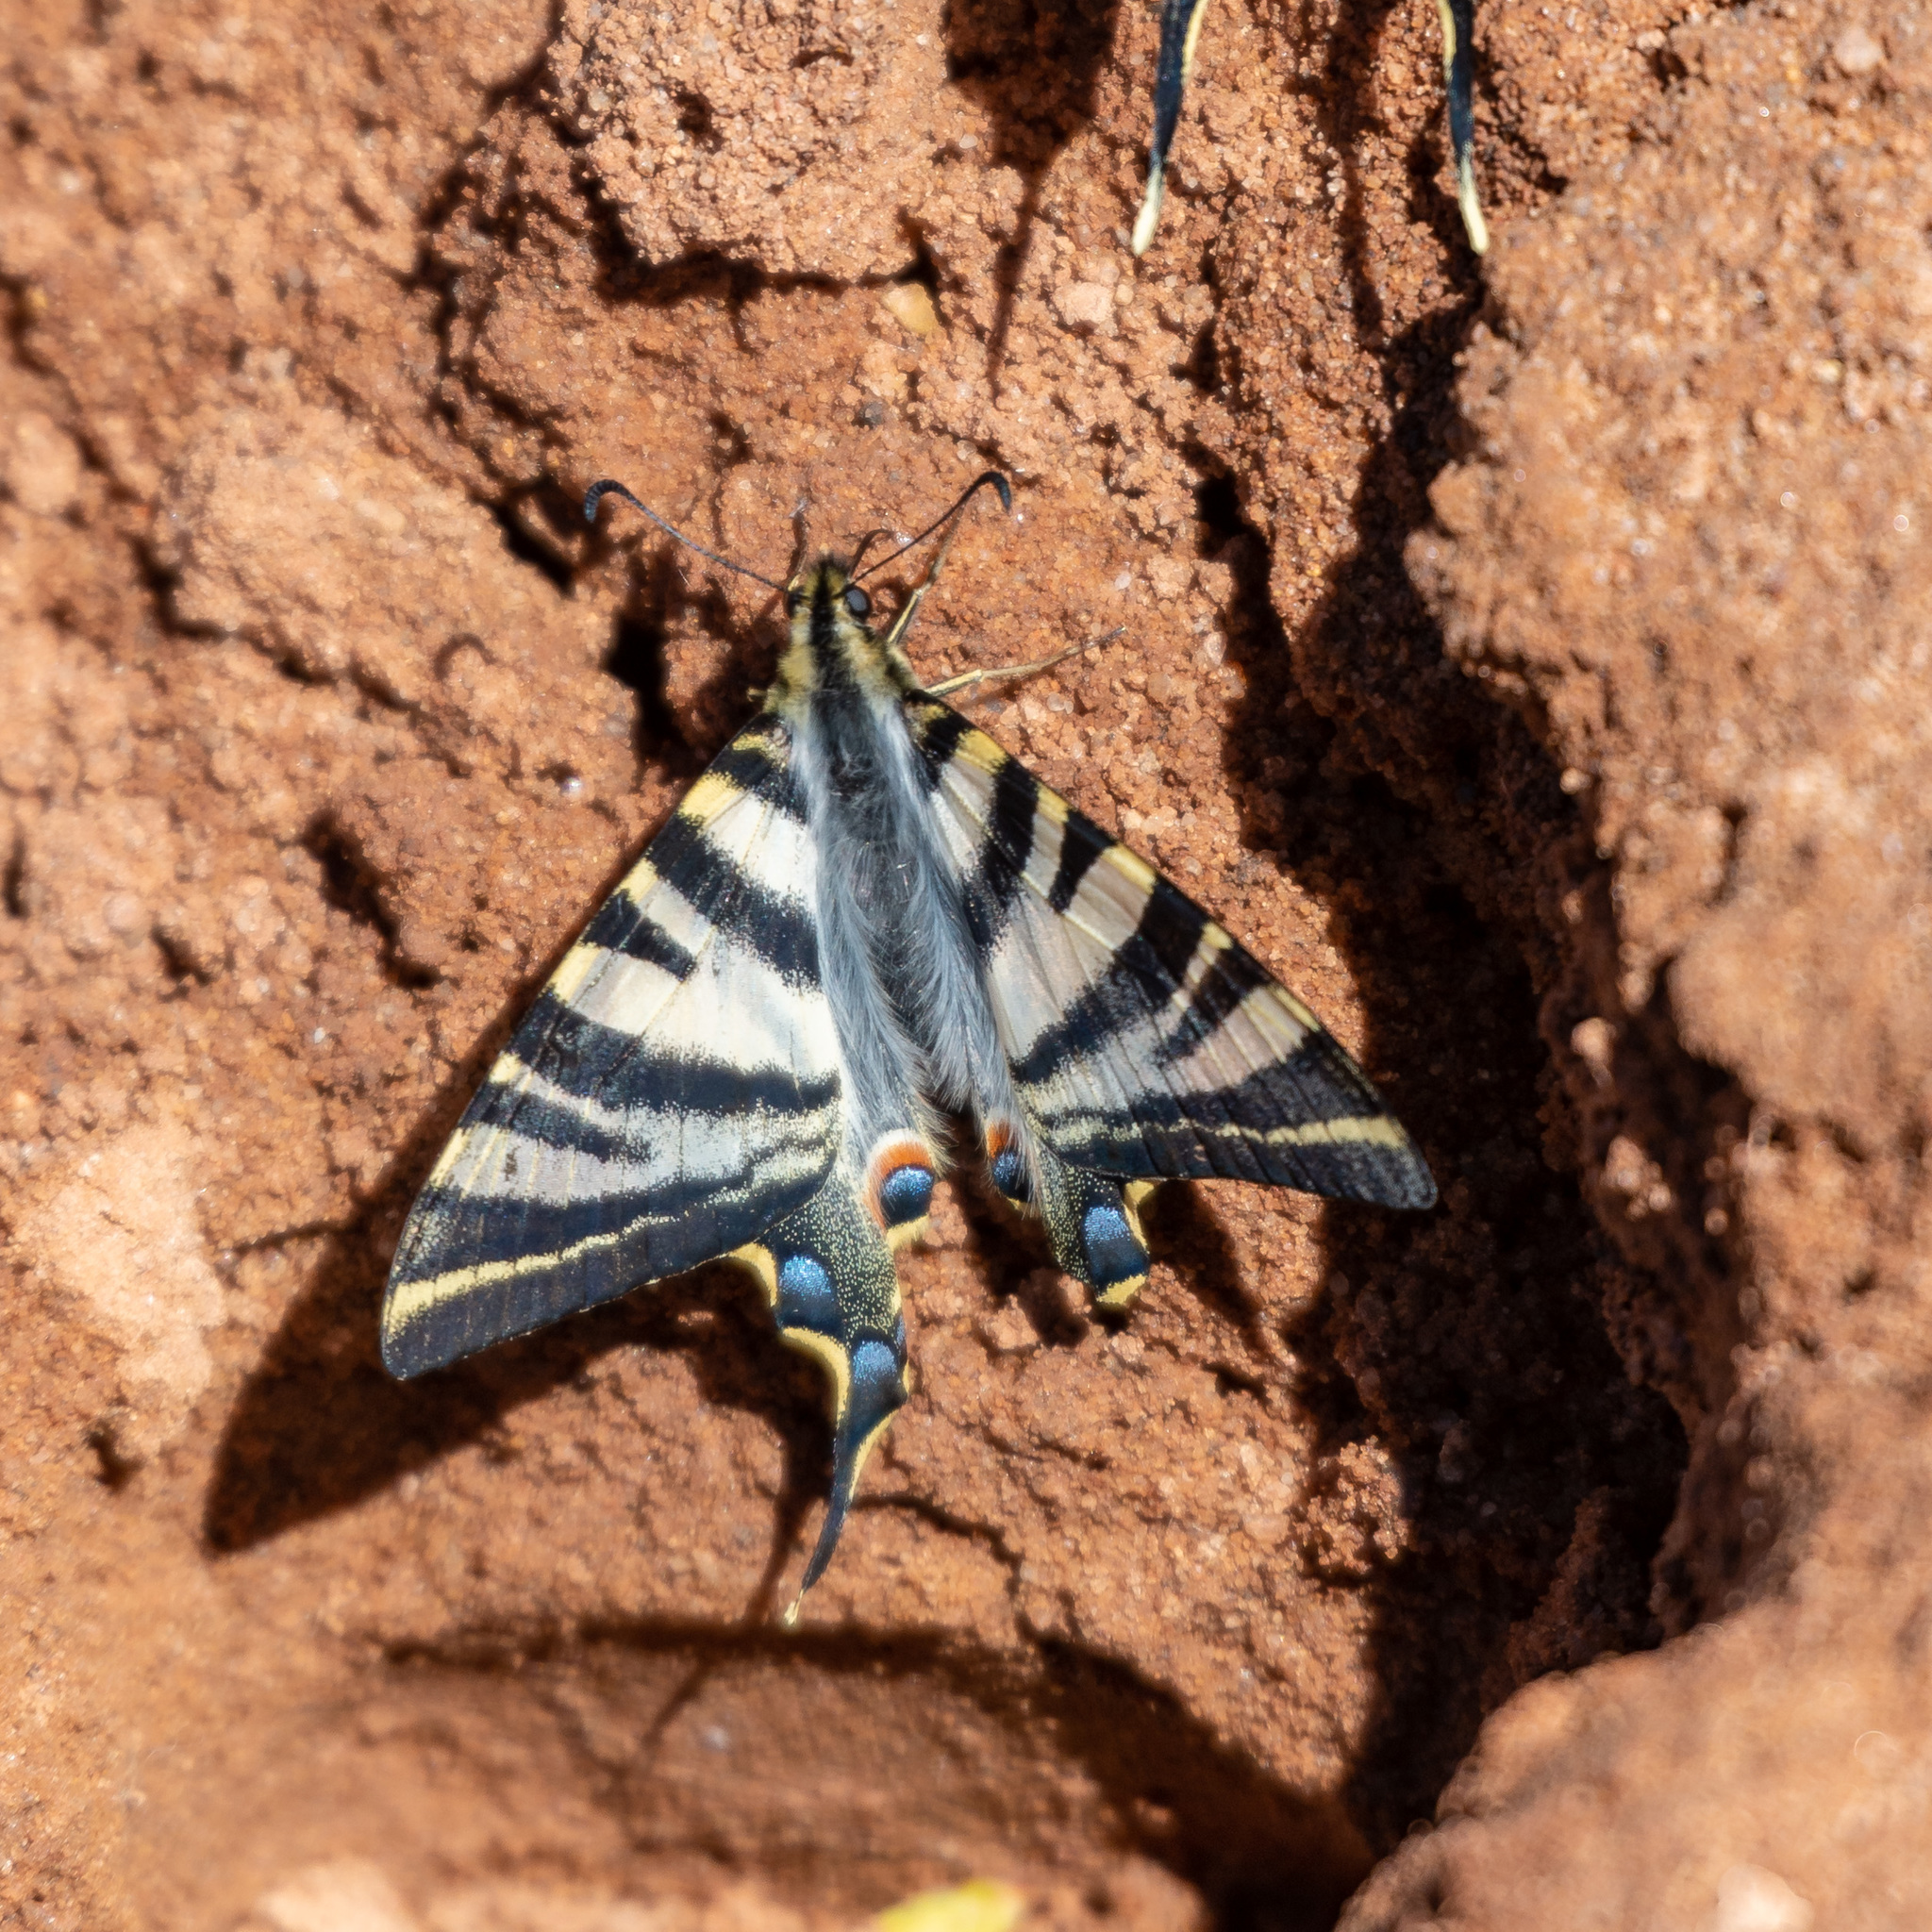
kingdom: Animalia
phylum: Arthropoda
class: Insecta
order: Lepidoptera
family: Papilionidae
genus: Iphiclides
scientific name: Iphiclides feisthamelii
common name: Iberian scarce swallowtail
